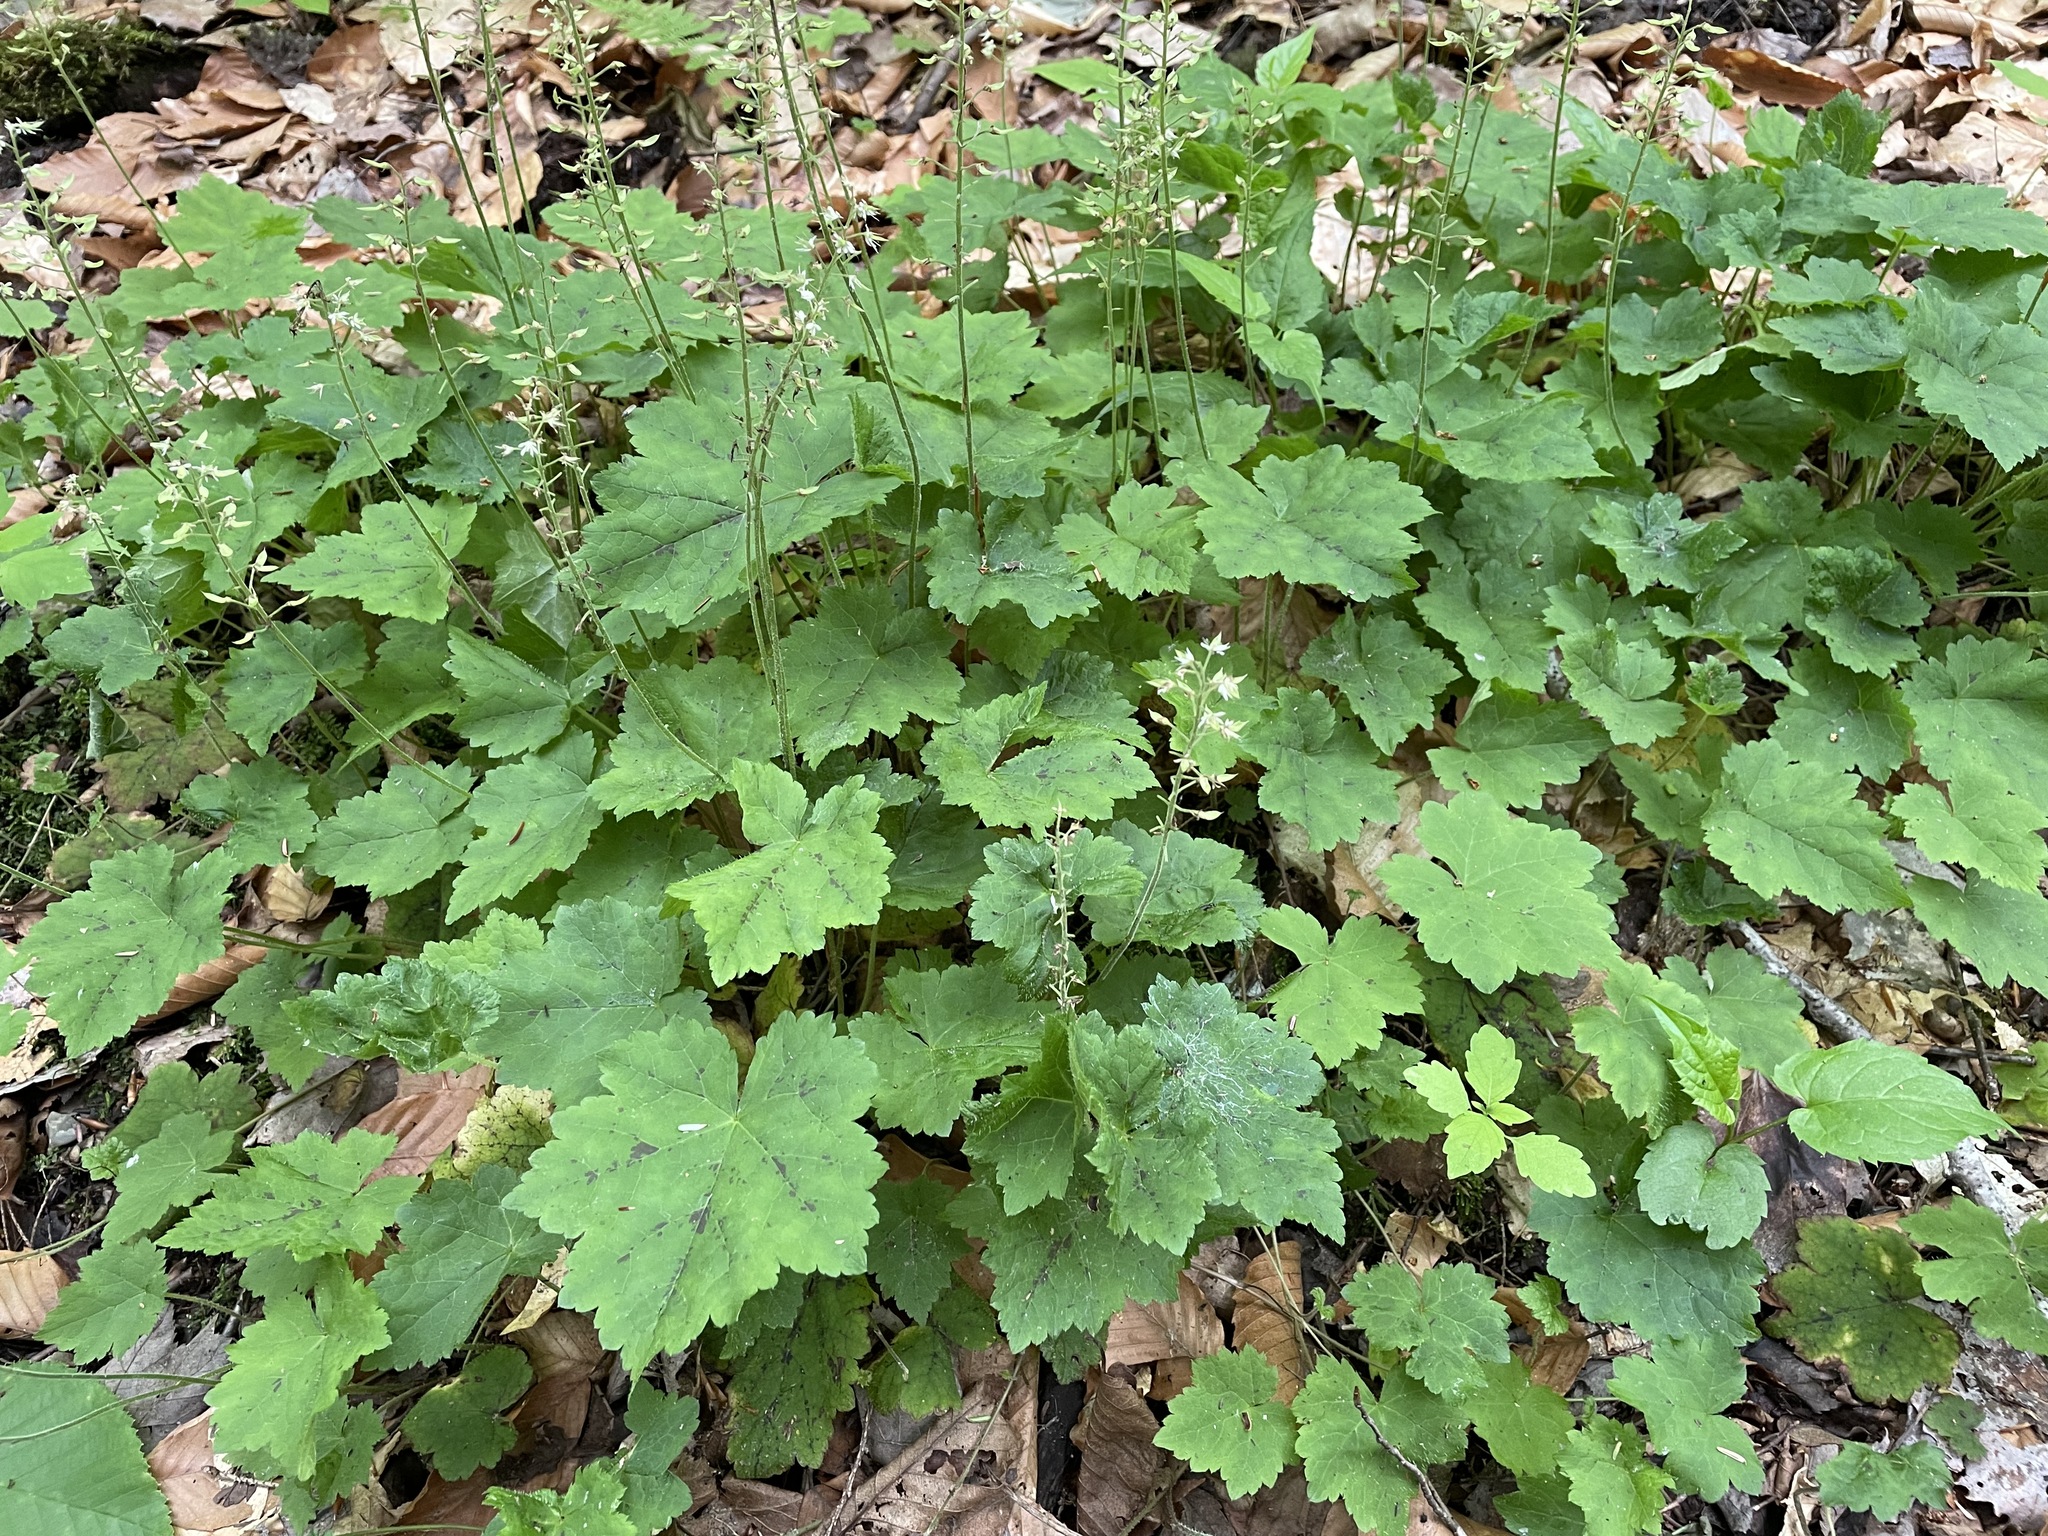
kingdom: Plantae
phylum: Tracheophyta
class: Magnoliopsida
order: Saxifragales
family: Saxifragaceae
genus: Tiarella
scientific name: Tiarella stolonifera
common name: Stoloniferous foamflower
